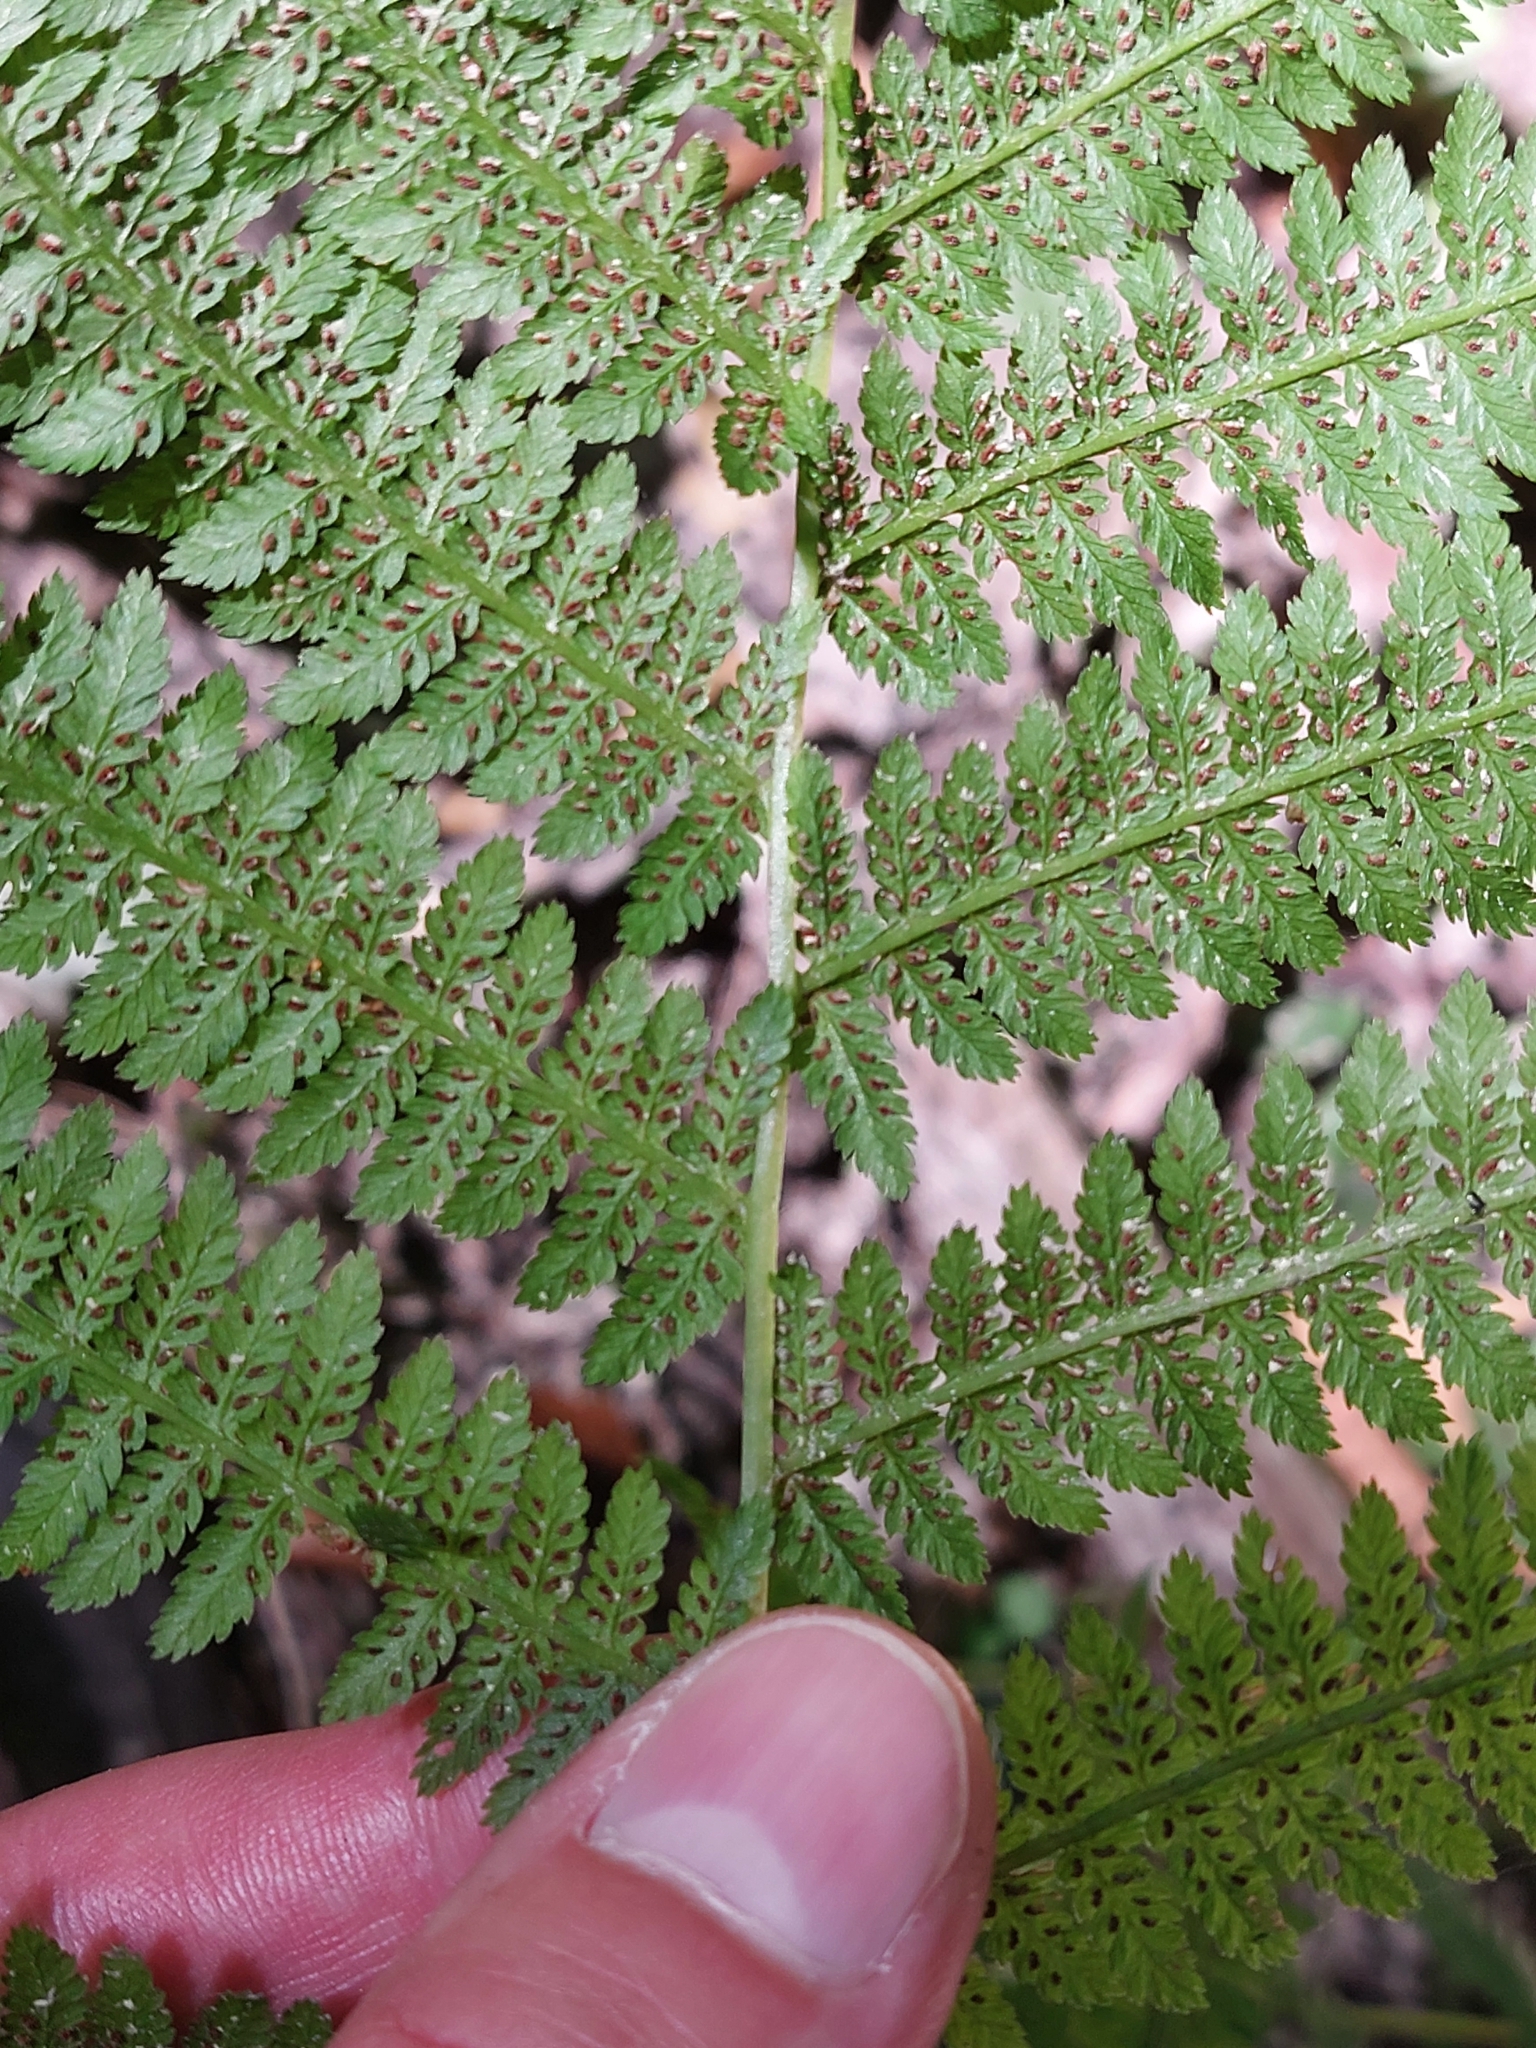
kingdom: Plantae
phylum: Tracheophyta
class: Polypodiopsida
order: Polypodiales
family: Athyriaceae
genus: Athyrium
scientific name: Athyrium filix-femina
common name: Lady fern
